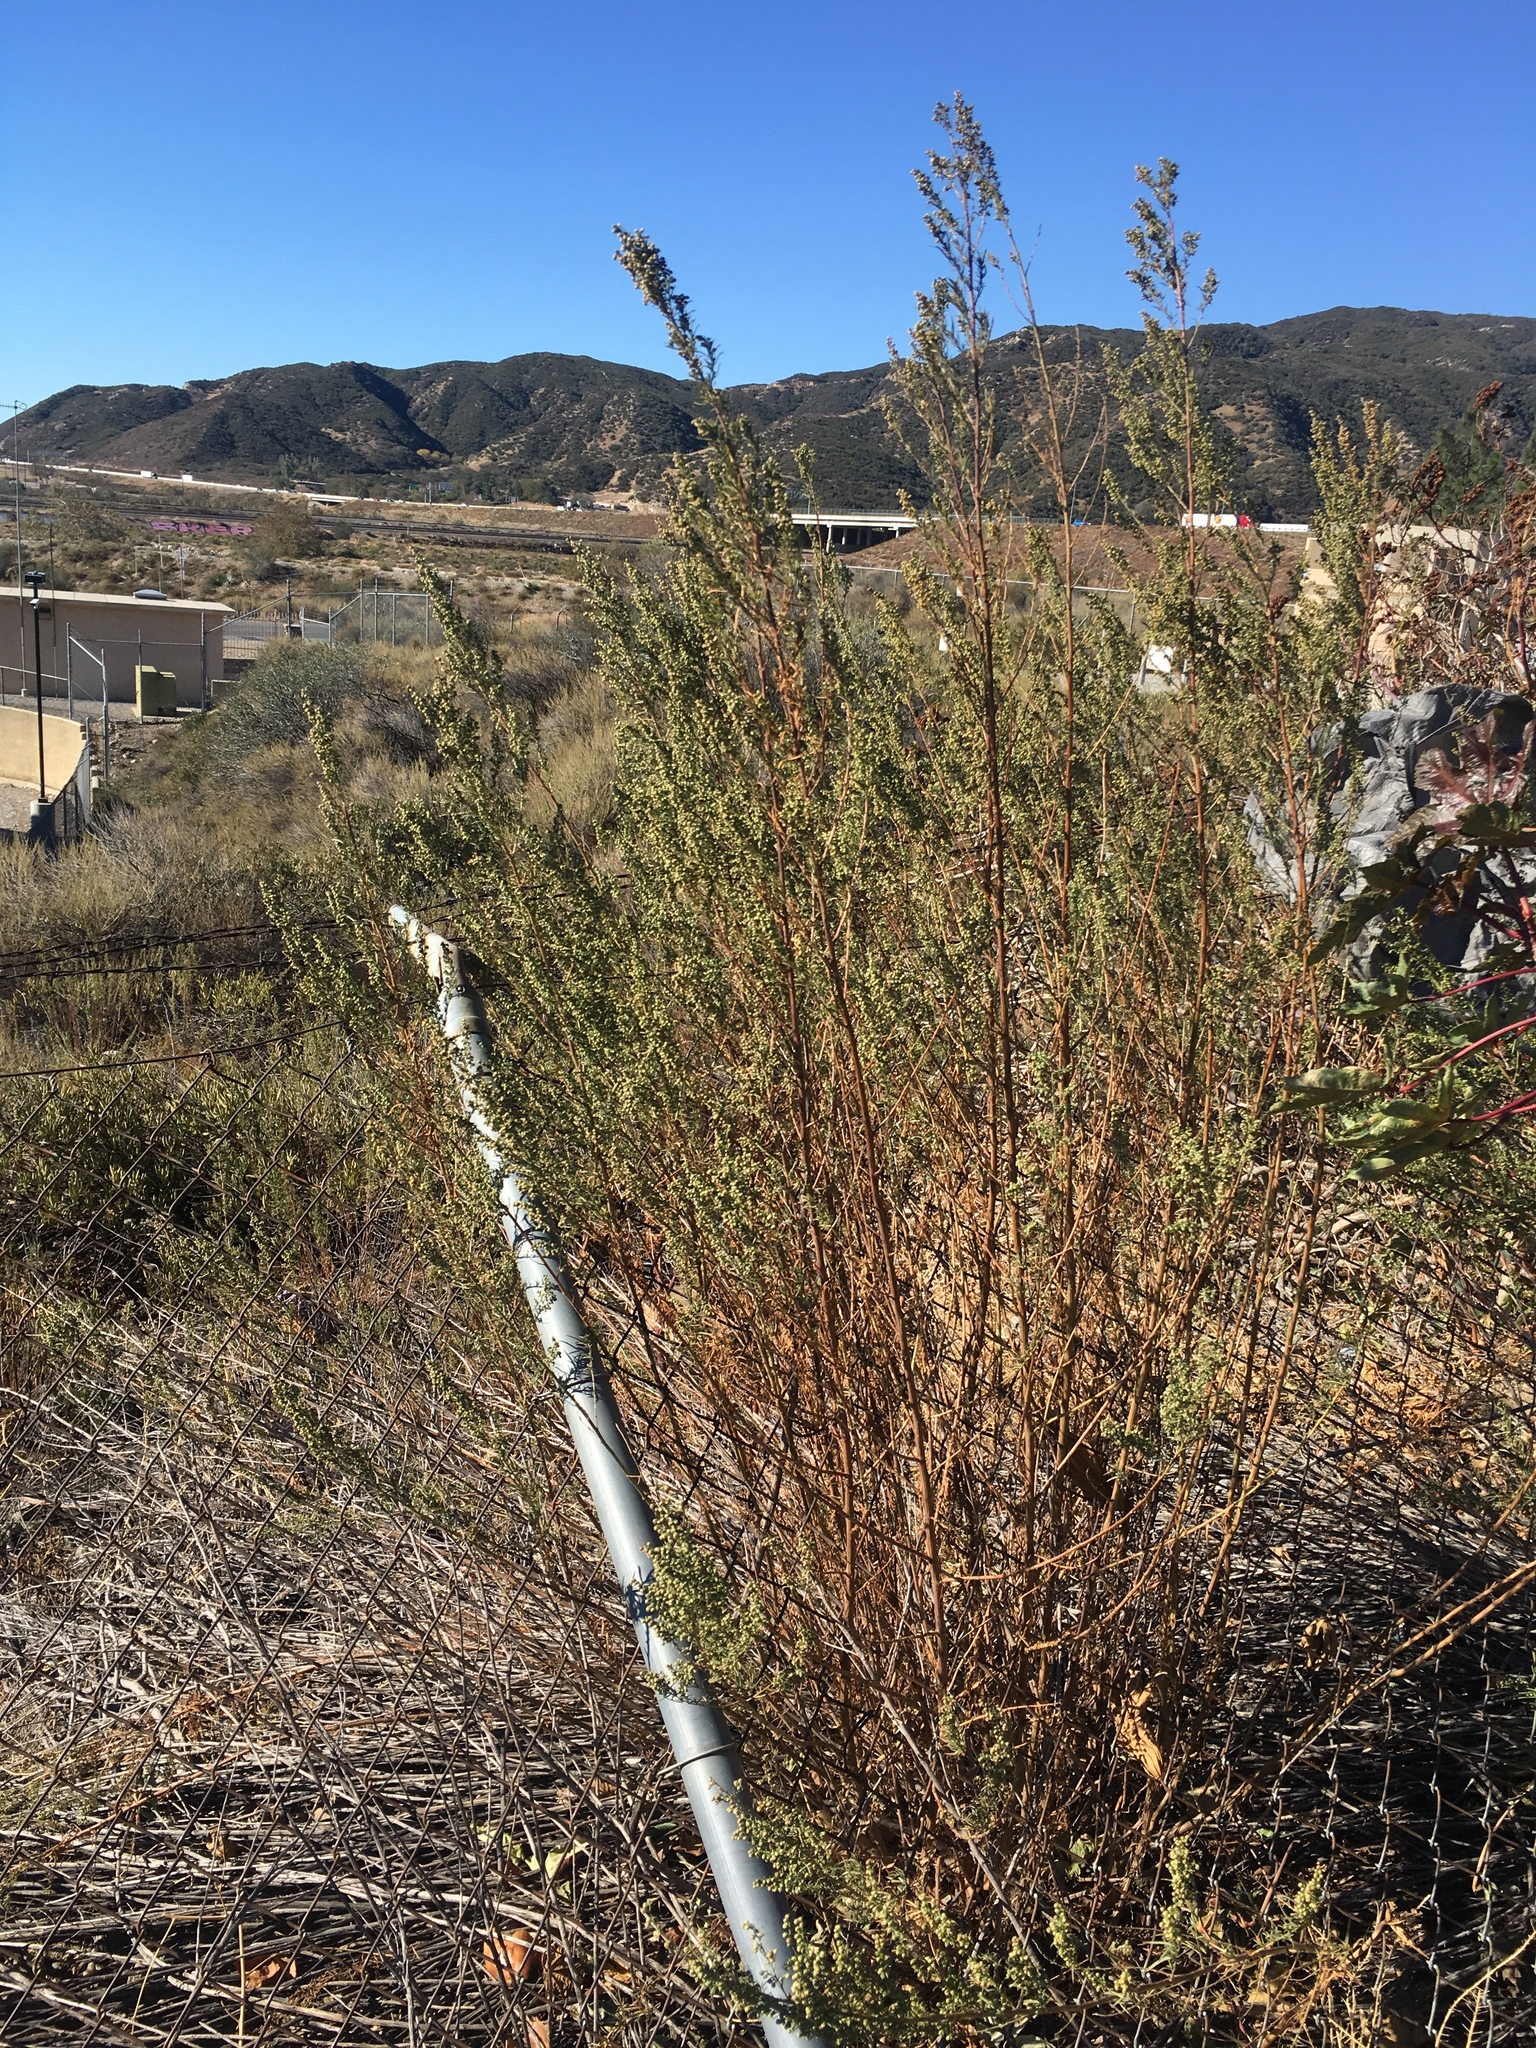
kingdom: Plantae
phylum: Tracheophyta
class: Magnoliopsida
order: Asterales
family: Asteraceae
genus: Artemisia
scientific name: Artemisia dracunculus
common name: Tarragon
